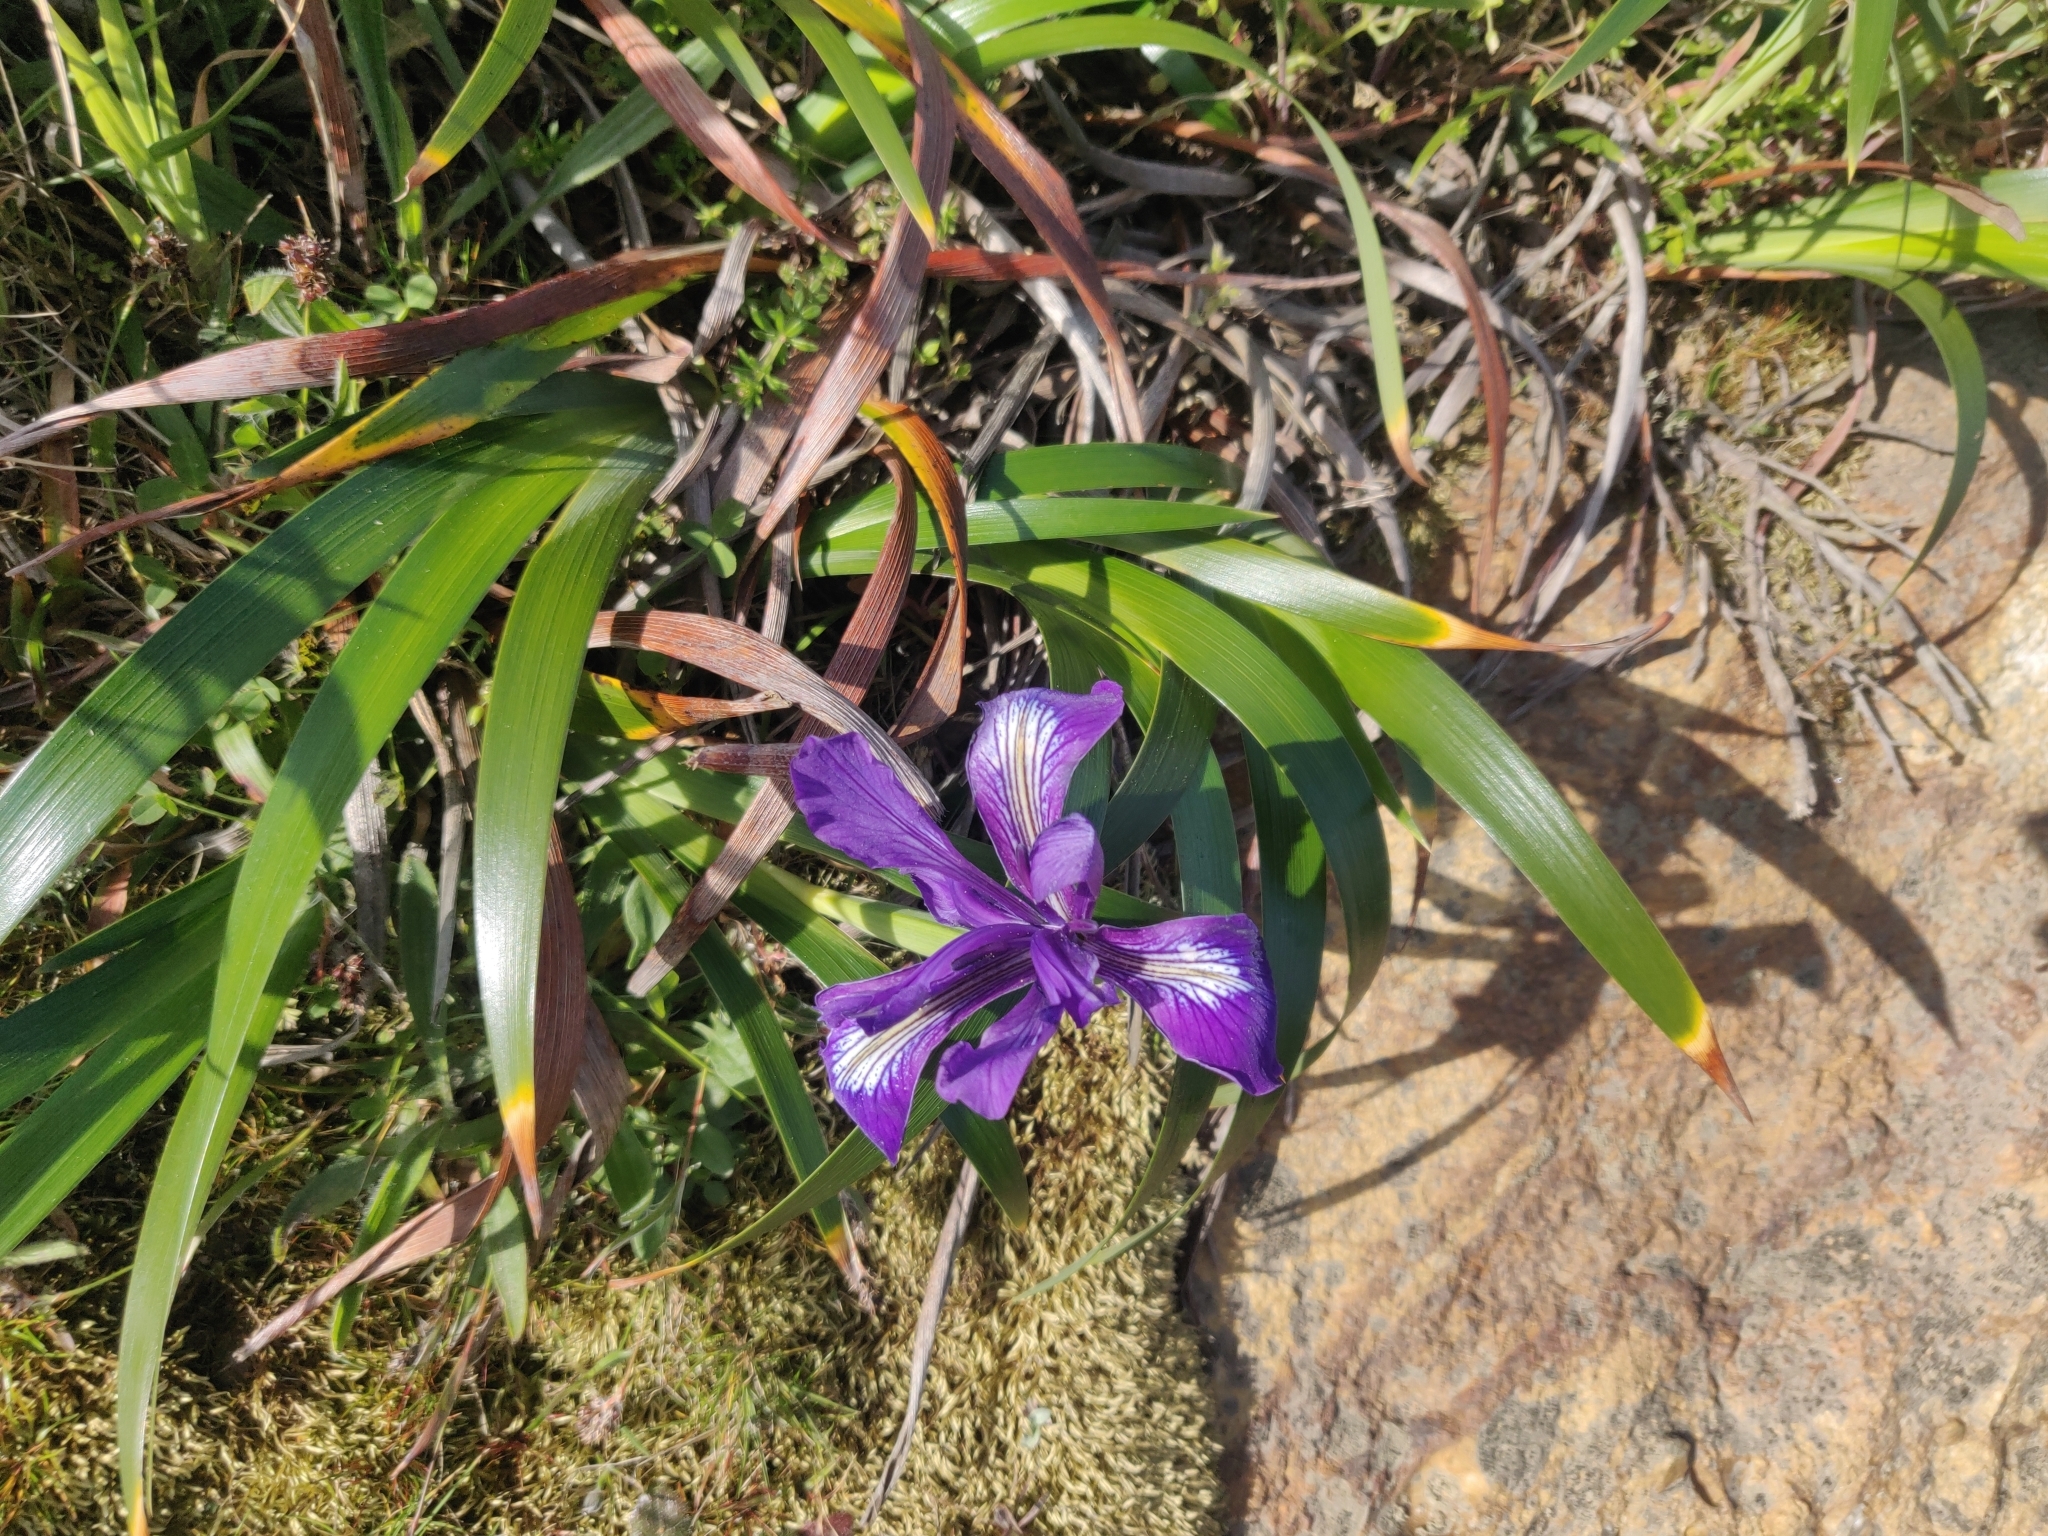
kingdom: Plantae
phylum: Tracheophyta
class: Liliopsida
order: Asparagales
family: Iridaceae
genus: Iris
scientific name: Iris douglasiana
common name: Marin iris
